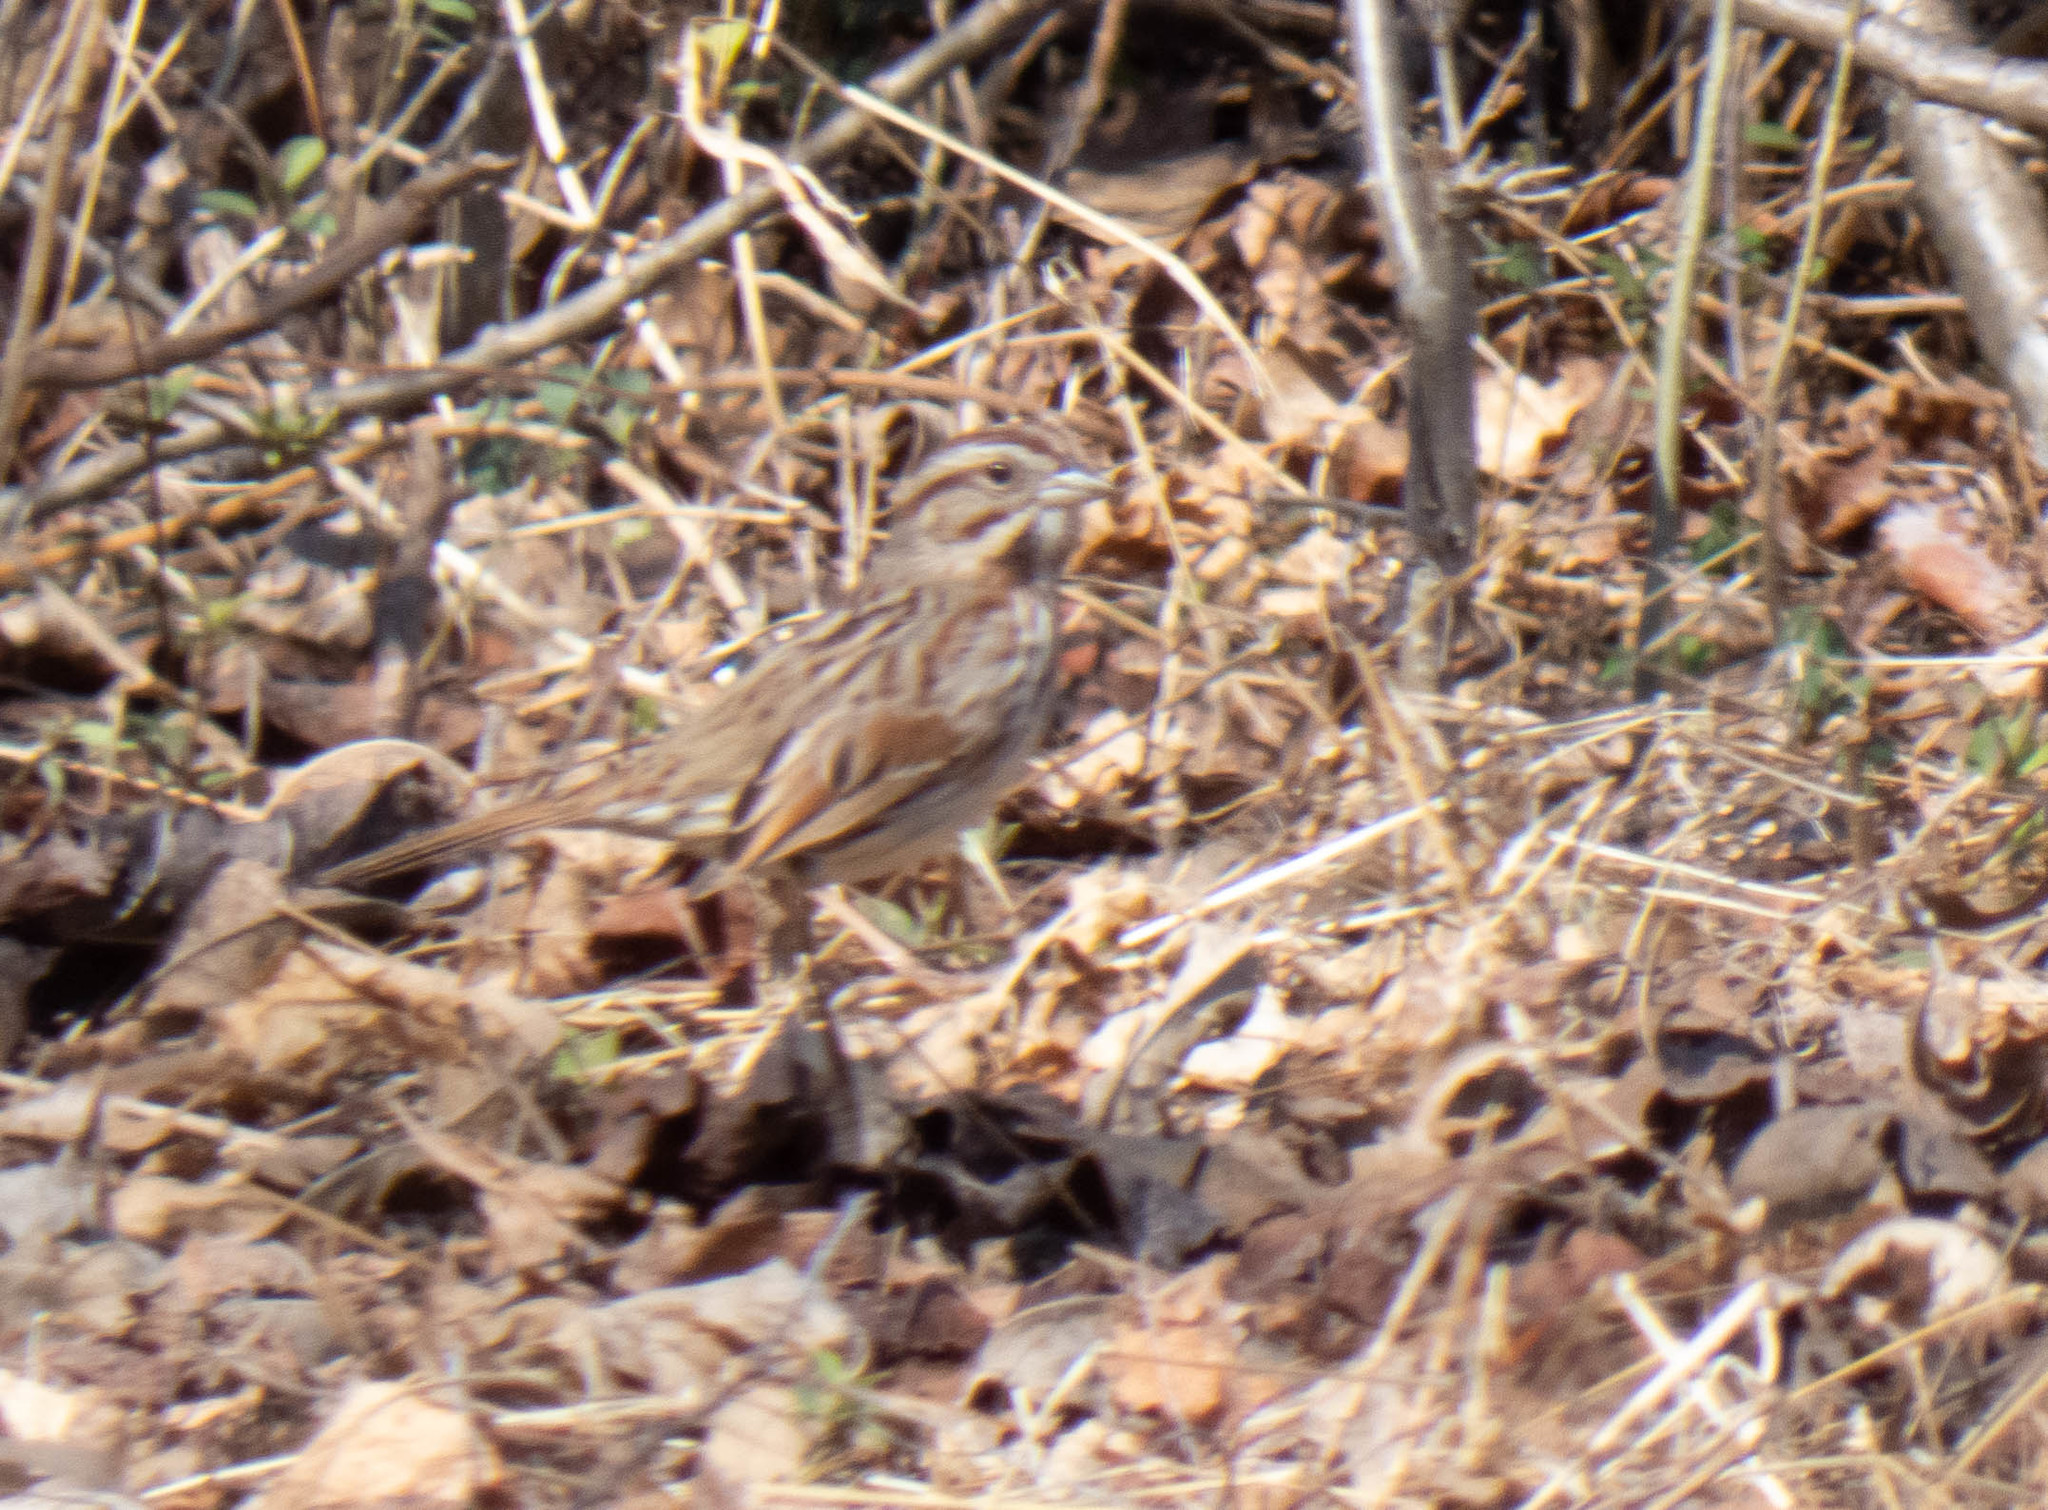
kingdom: Animalia
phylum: Chordata
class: Aves
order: Passeriformes
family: Passerellidae
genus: Melospiza
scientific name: Melospiza melodia
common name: Song sparrow
